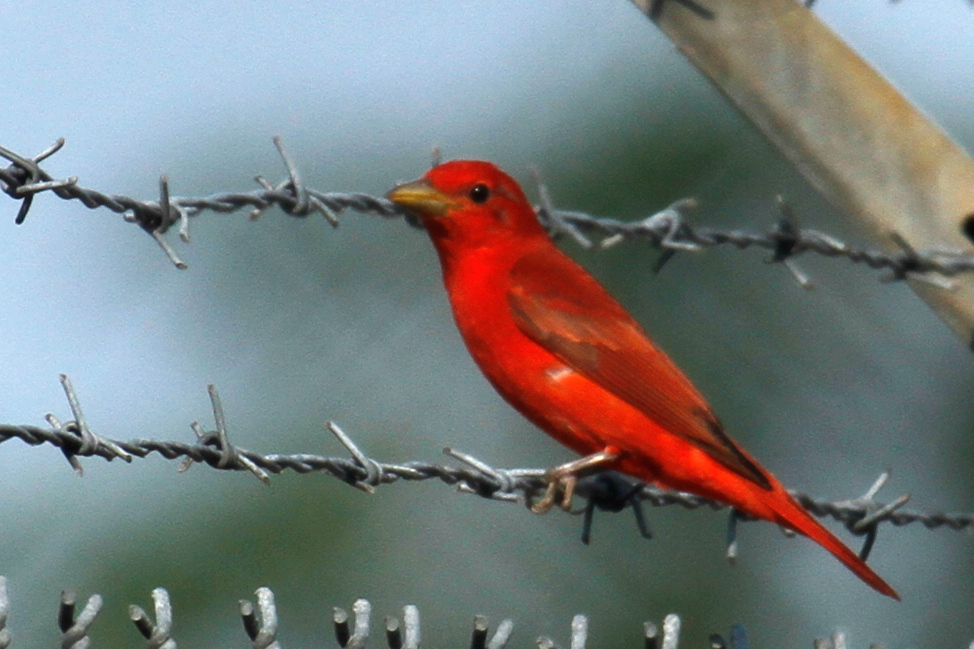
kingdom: Animalia
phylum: Chordata
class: Aves
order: Passeriformes
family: Cardinalidae
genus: Piranga
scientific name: Piranga rubra
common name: Summer tanager
